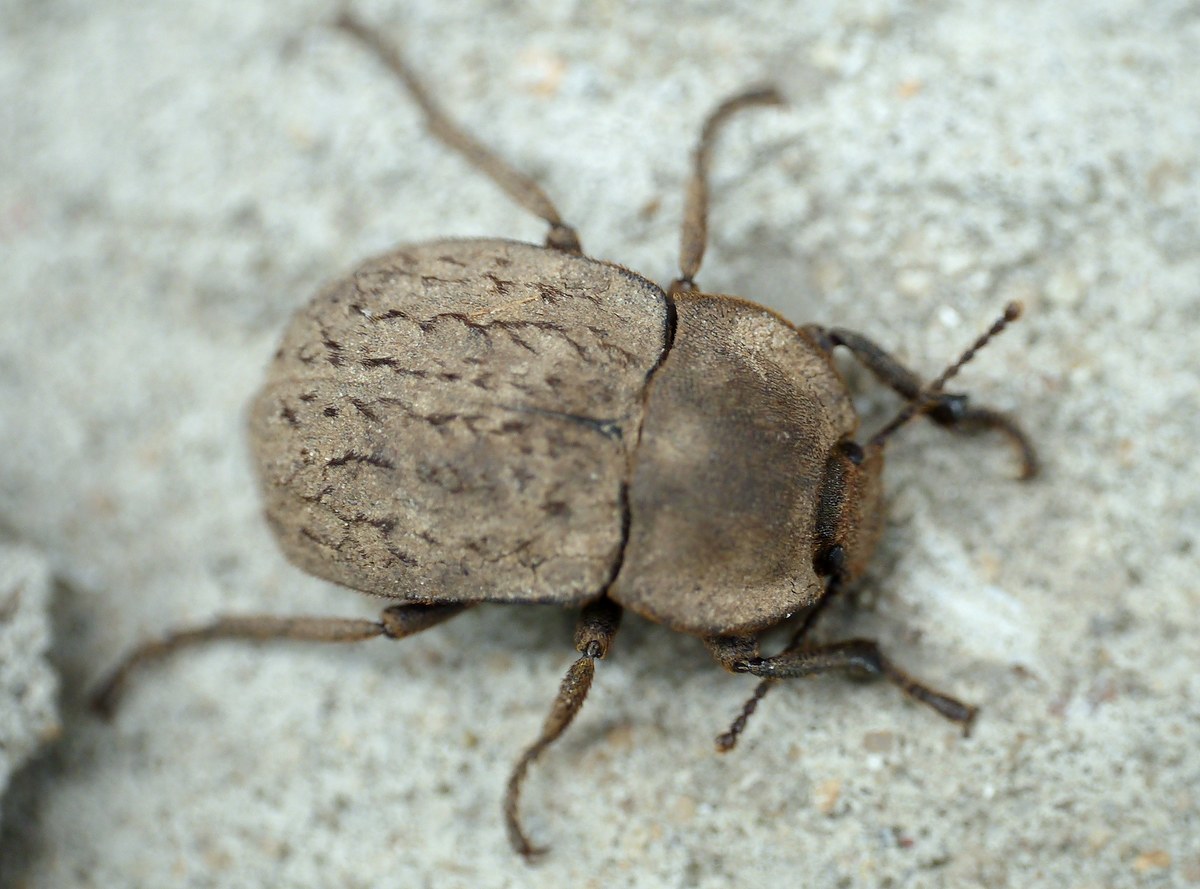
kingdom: Animalia
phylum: Arthropoda
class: Insecta
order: Coleoptera
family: Tenebrionidae
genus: Asida
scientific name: Asida lutosa
